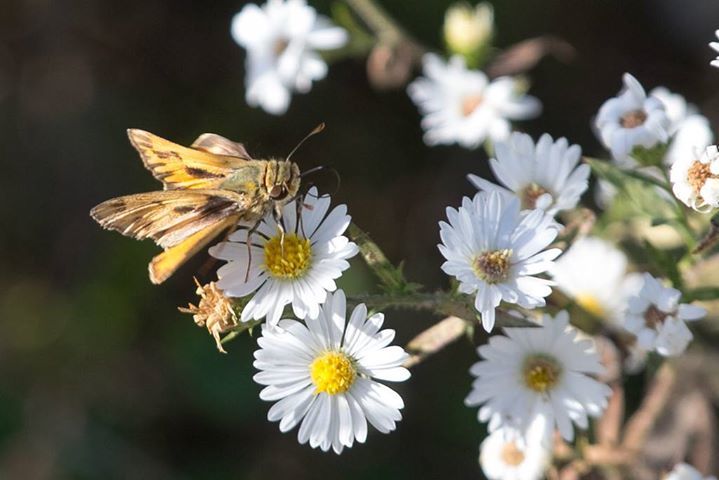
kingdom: Animalia
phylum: Arthropoda
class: Insecta
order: Lepidoptera
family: Hesperiidae
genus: Hylephila
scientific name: Hylephila phyleus
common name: Fiery skipper
